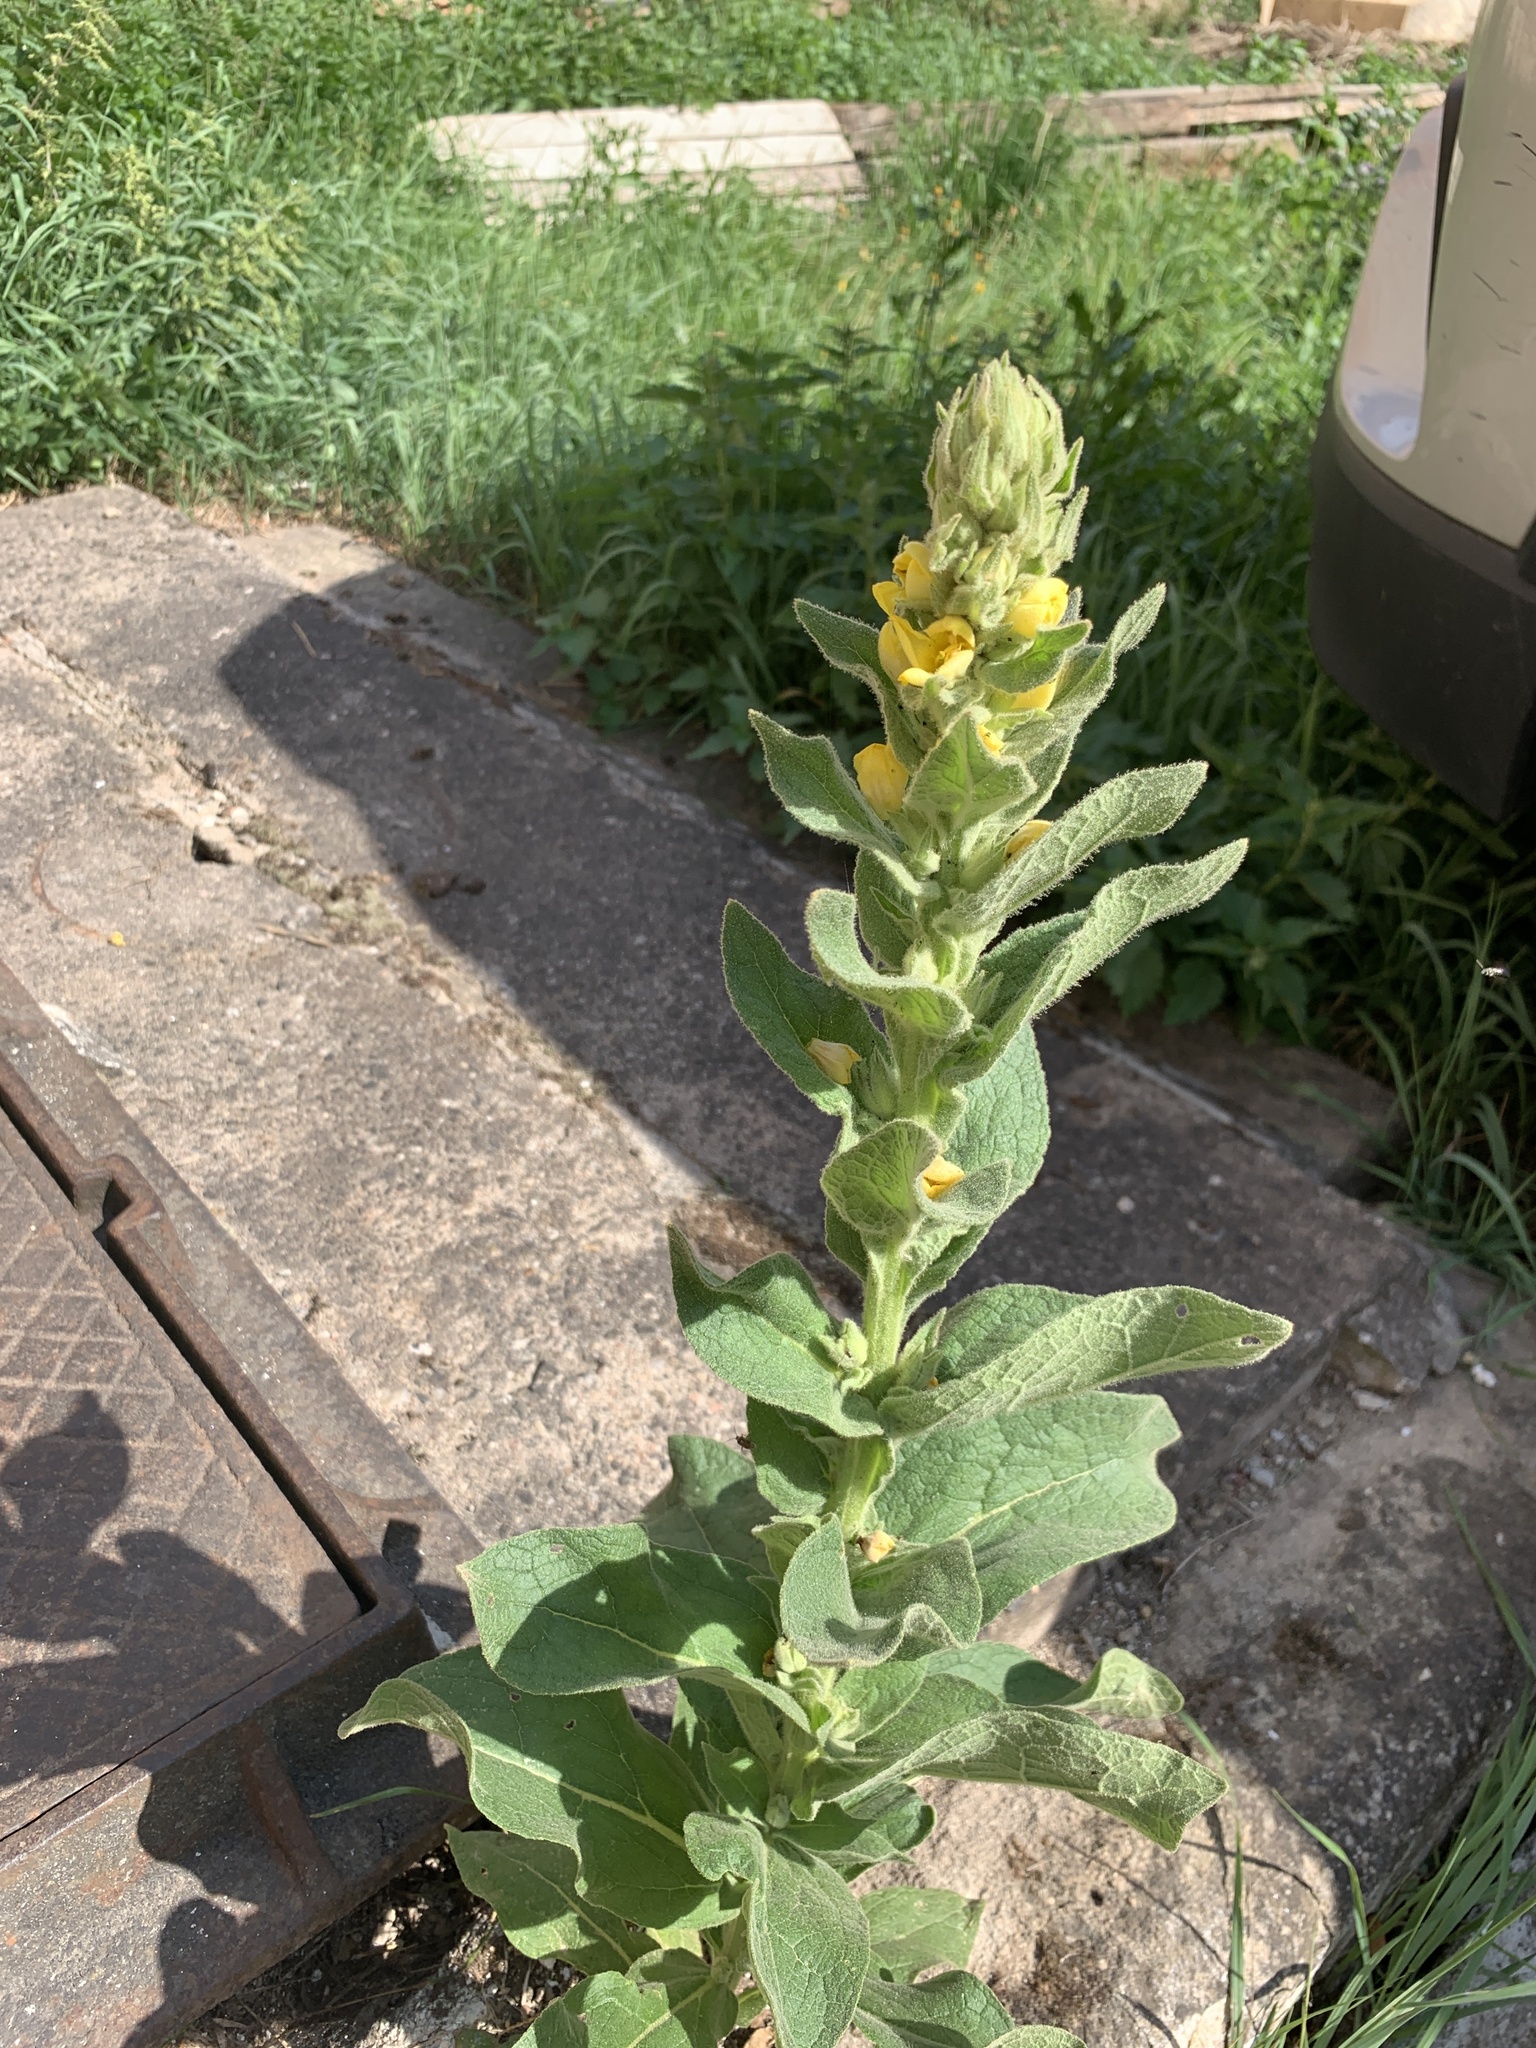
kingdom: Plantae
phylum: Tracheophyta
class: Magnoliopsida
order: Lamiales
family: Scrophulariaceae
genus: Verbascum
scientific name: Verbascum thapsus
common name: Common mullein
